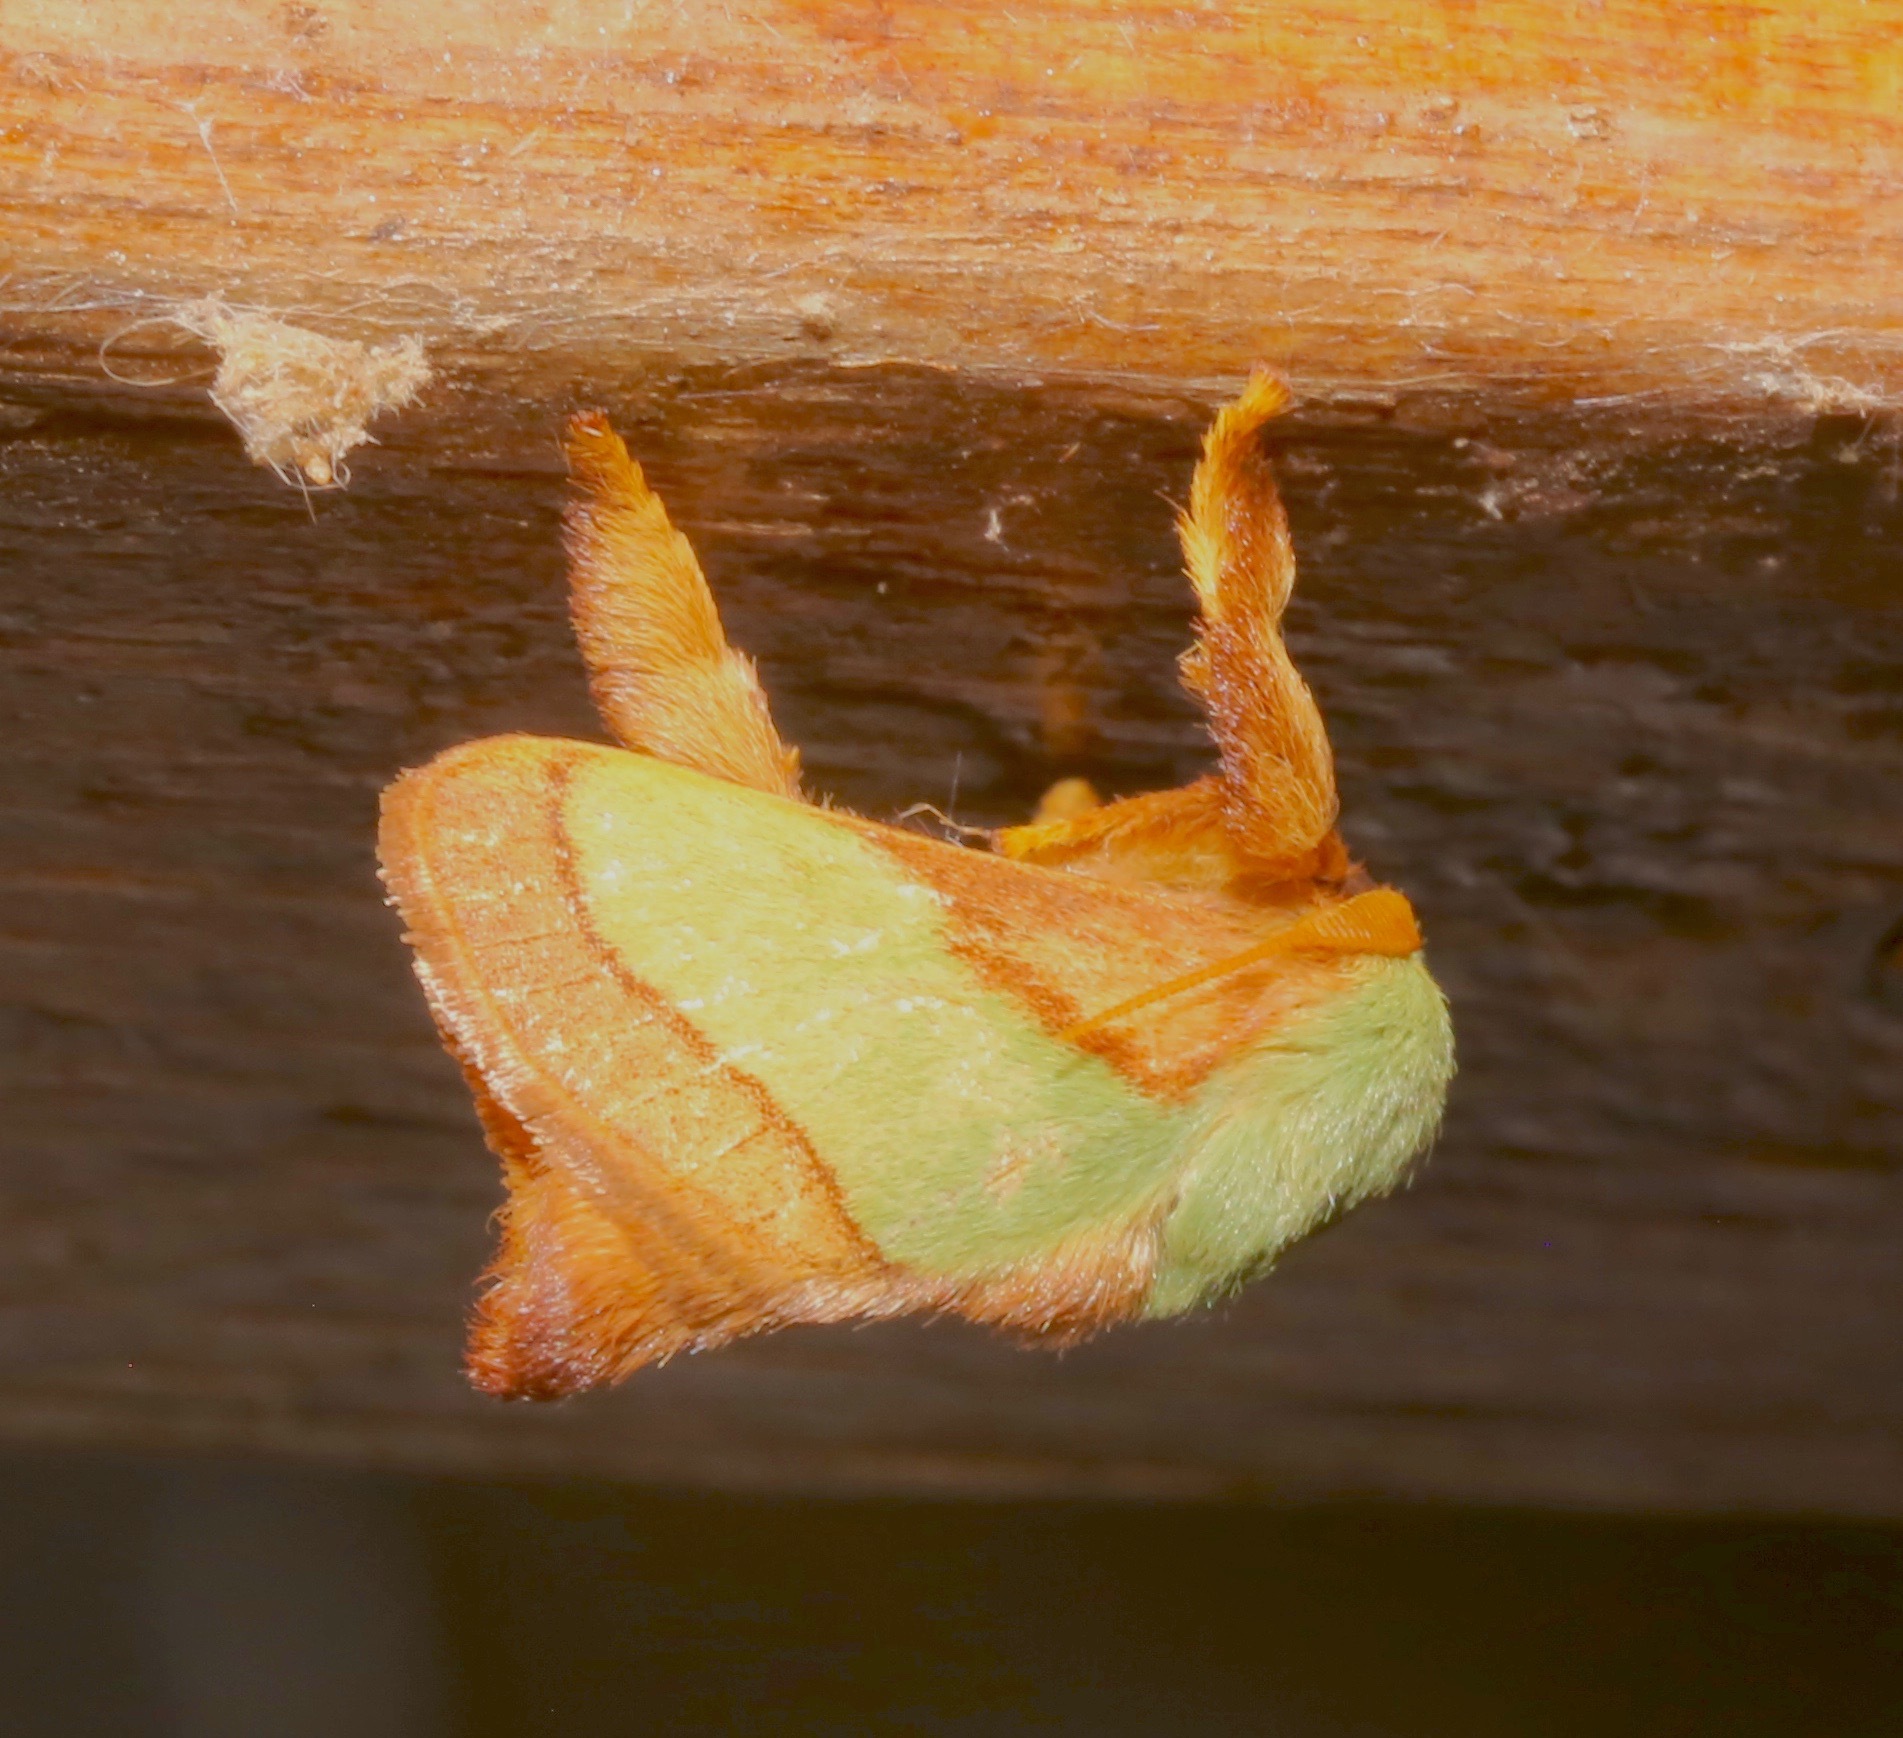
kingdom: Animalia
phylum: Arthropoda
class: Insecta
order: Lepidoptera
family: Limacodidae
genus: Parasa
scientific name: Parasa chloris
